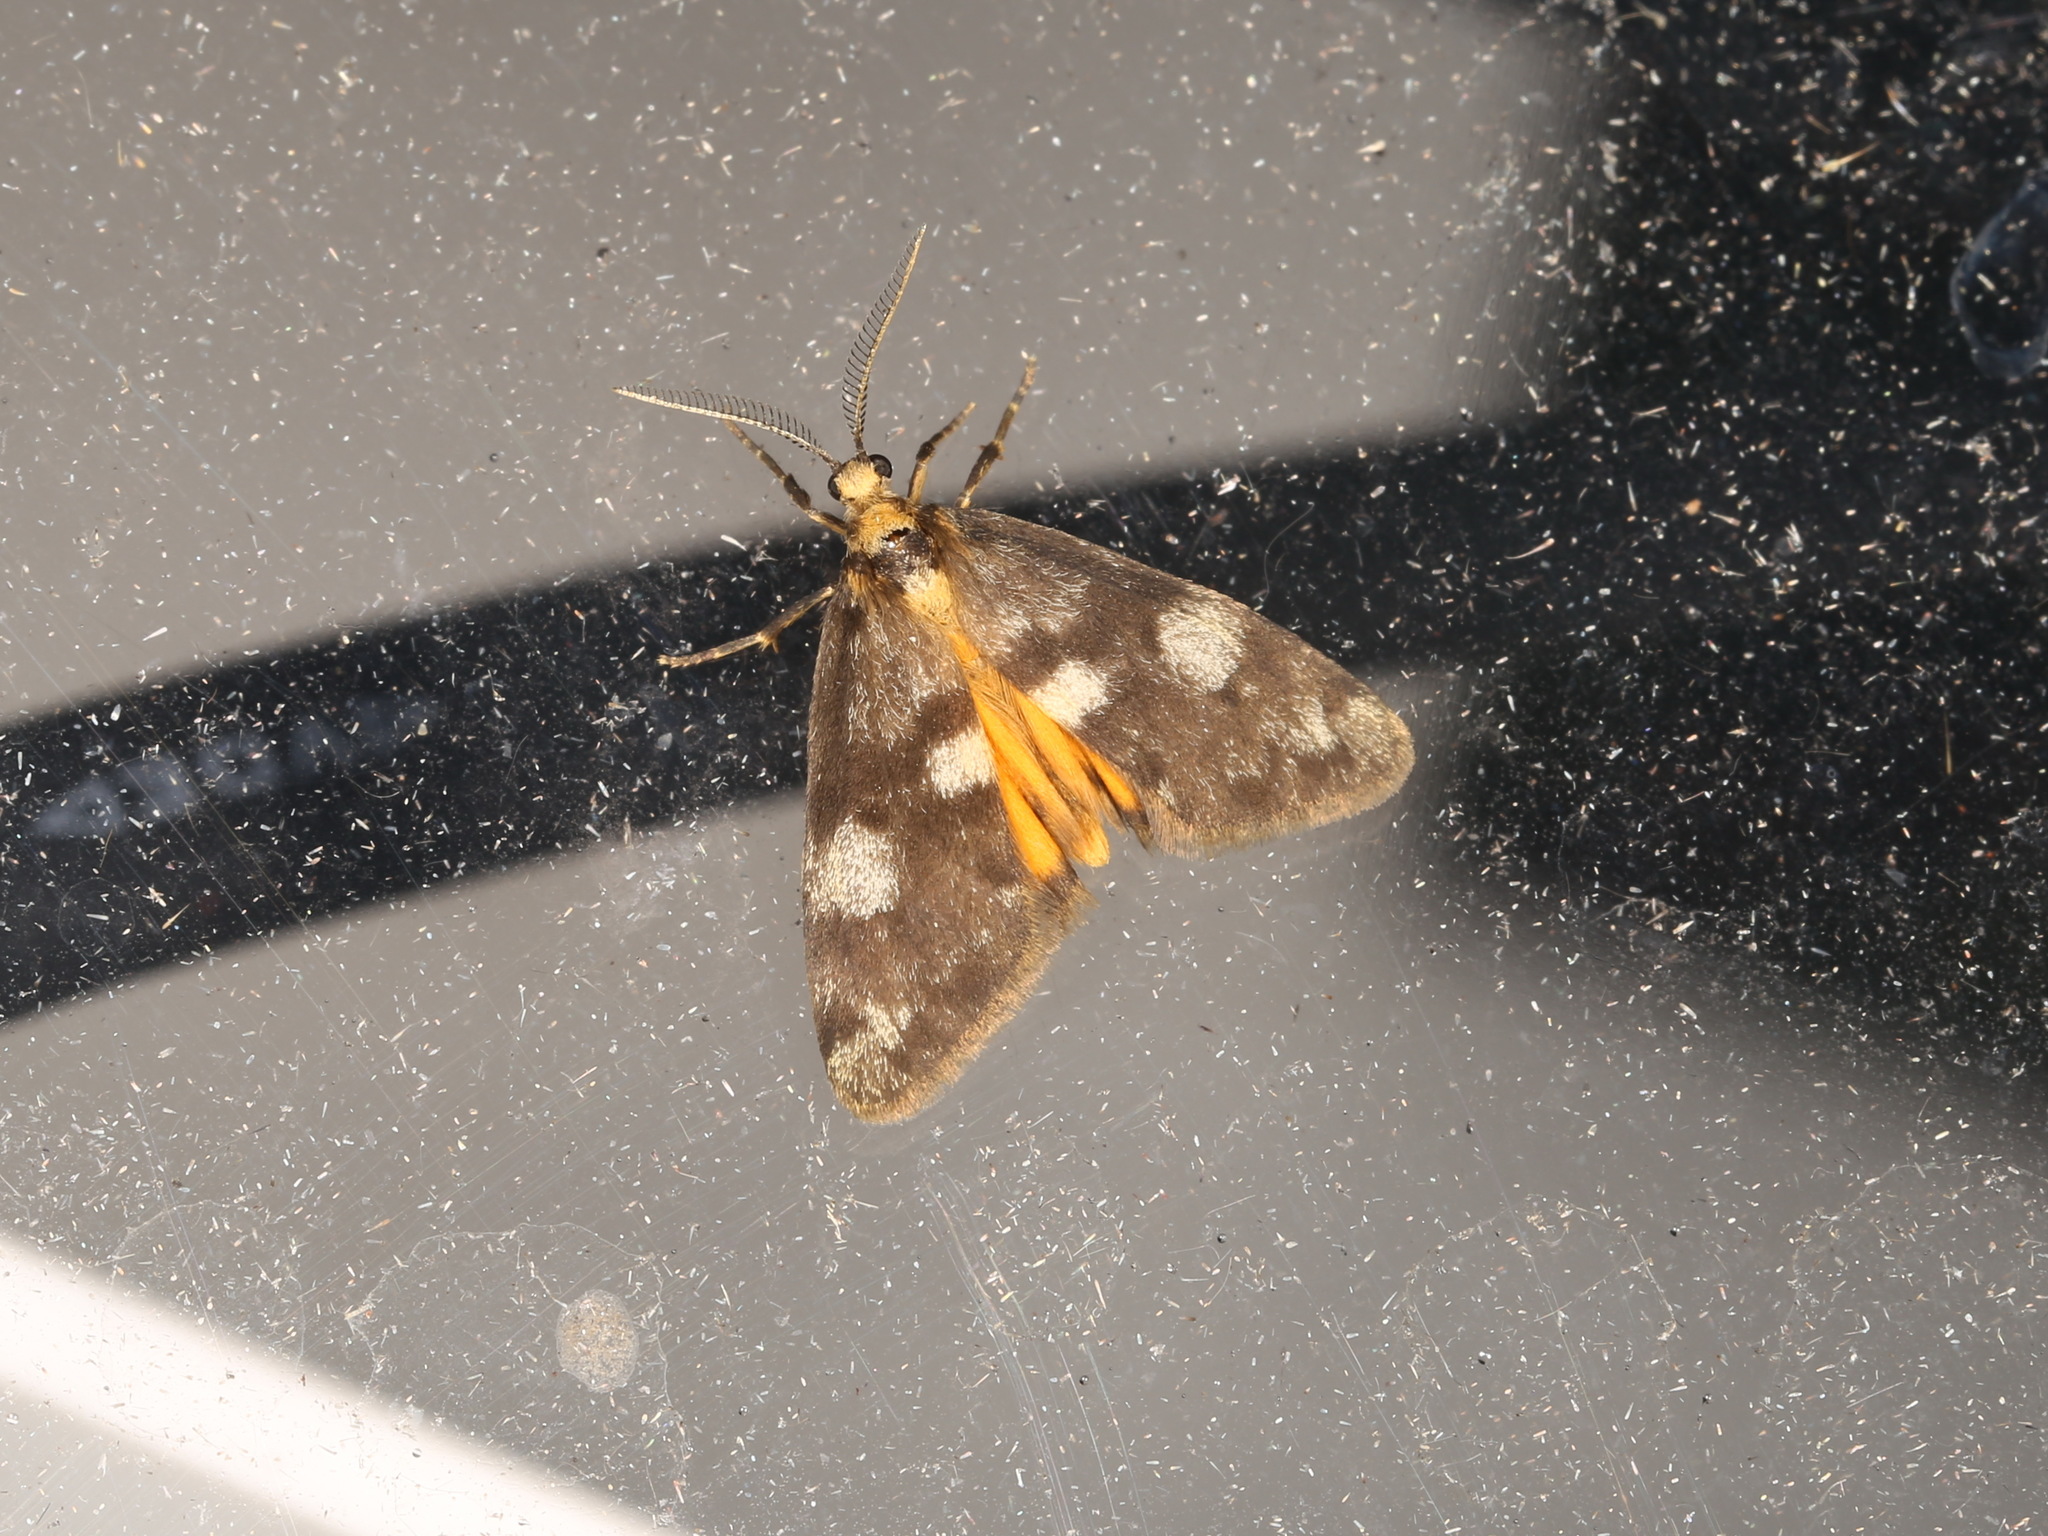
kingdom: Animalia
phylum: Arthropoda
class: Insecta
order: Lepidoptera
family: Erebidae
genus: Anestia
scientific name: Anestia semiochrea
